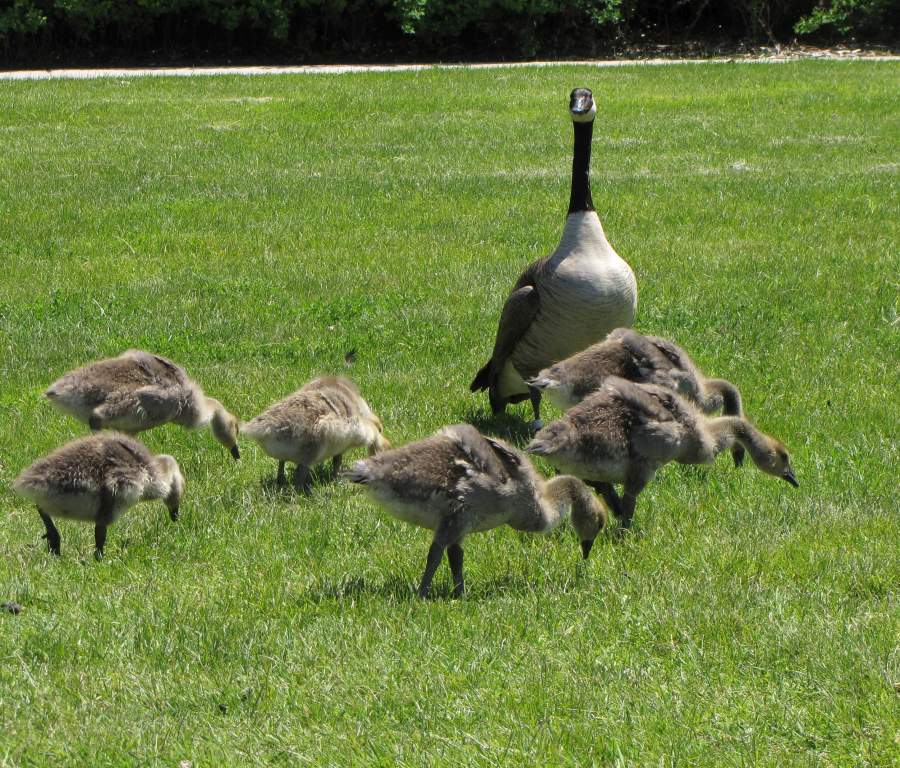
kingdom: Animalia
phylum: Chordata
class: Aves
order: Anseriformes
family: Anatidae
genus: Branta
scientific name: Branta canadensis
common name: Canada goose
